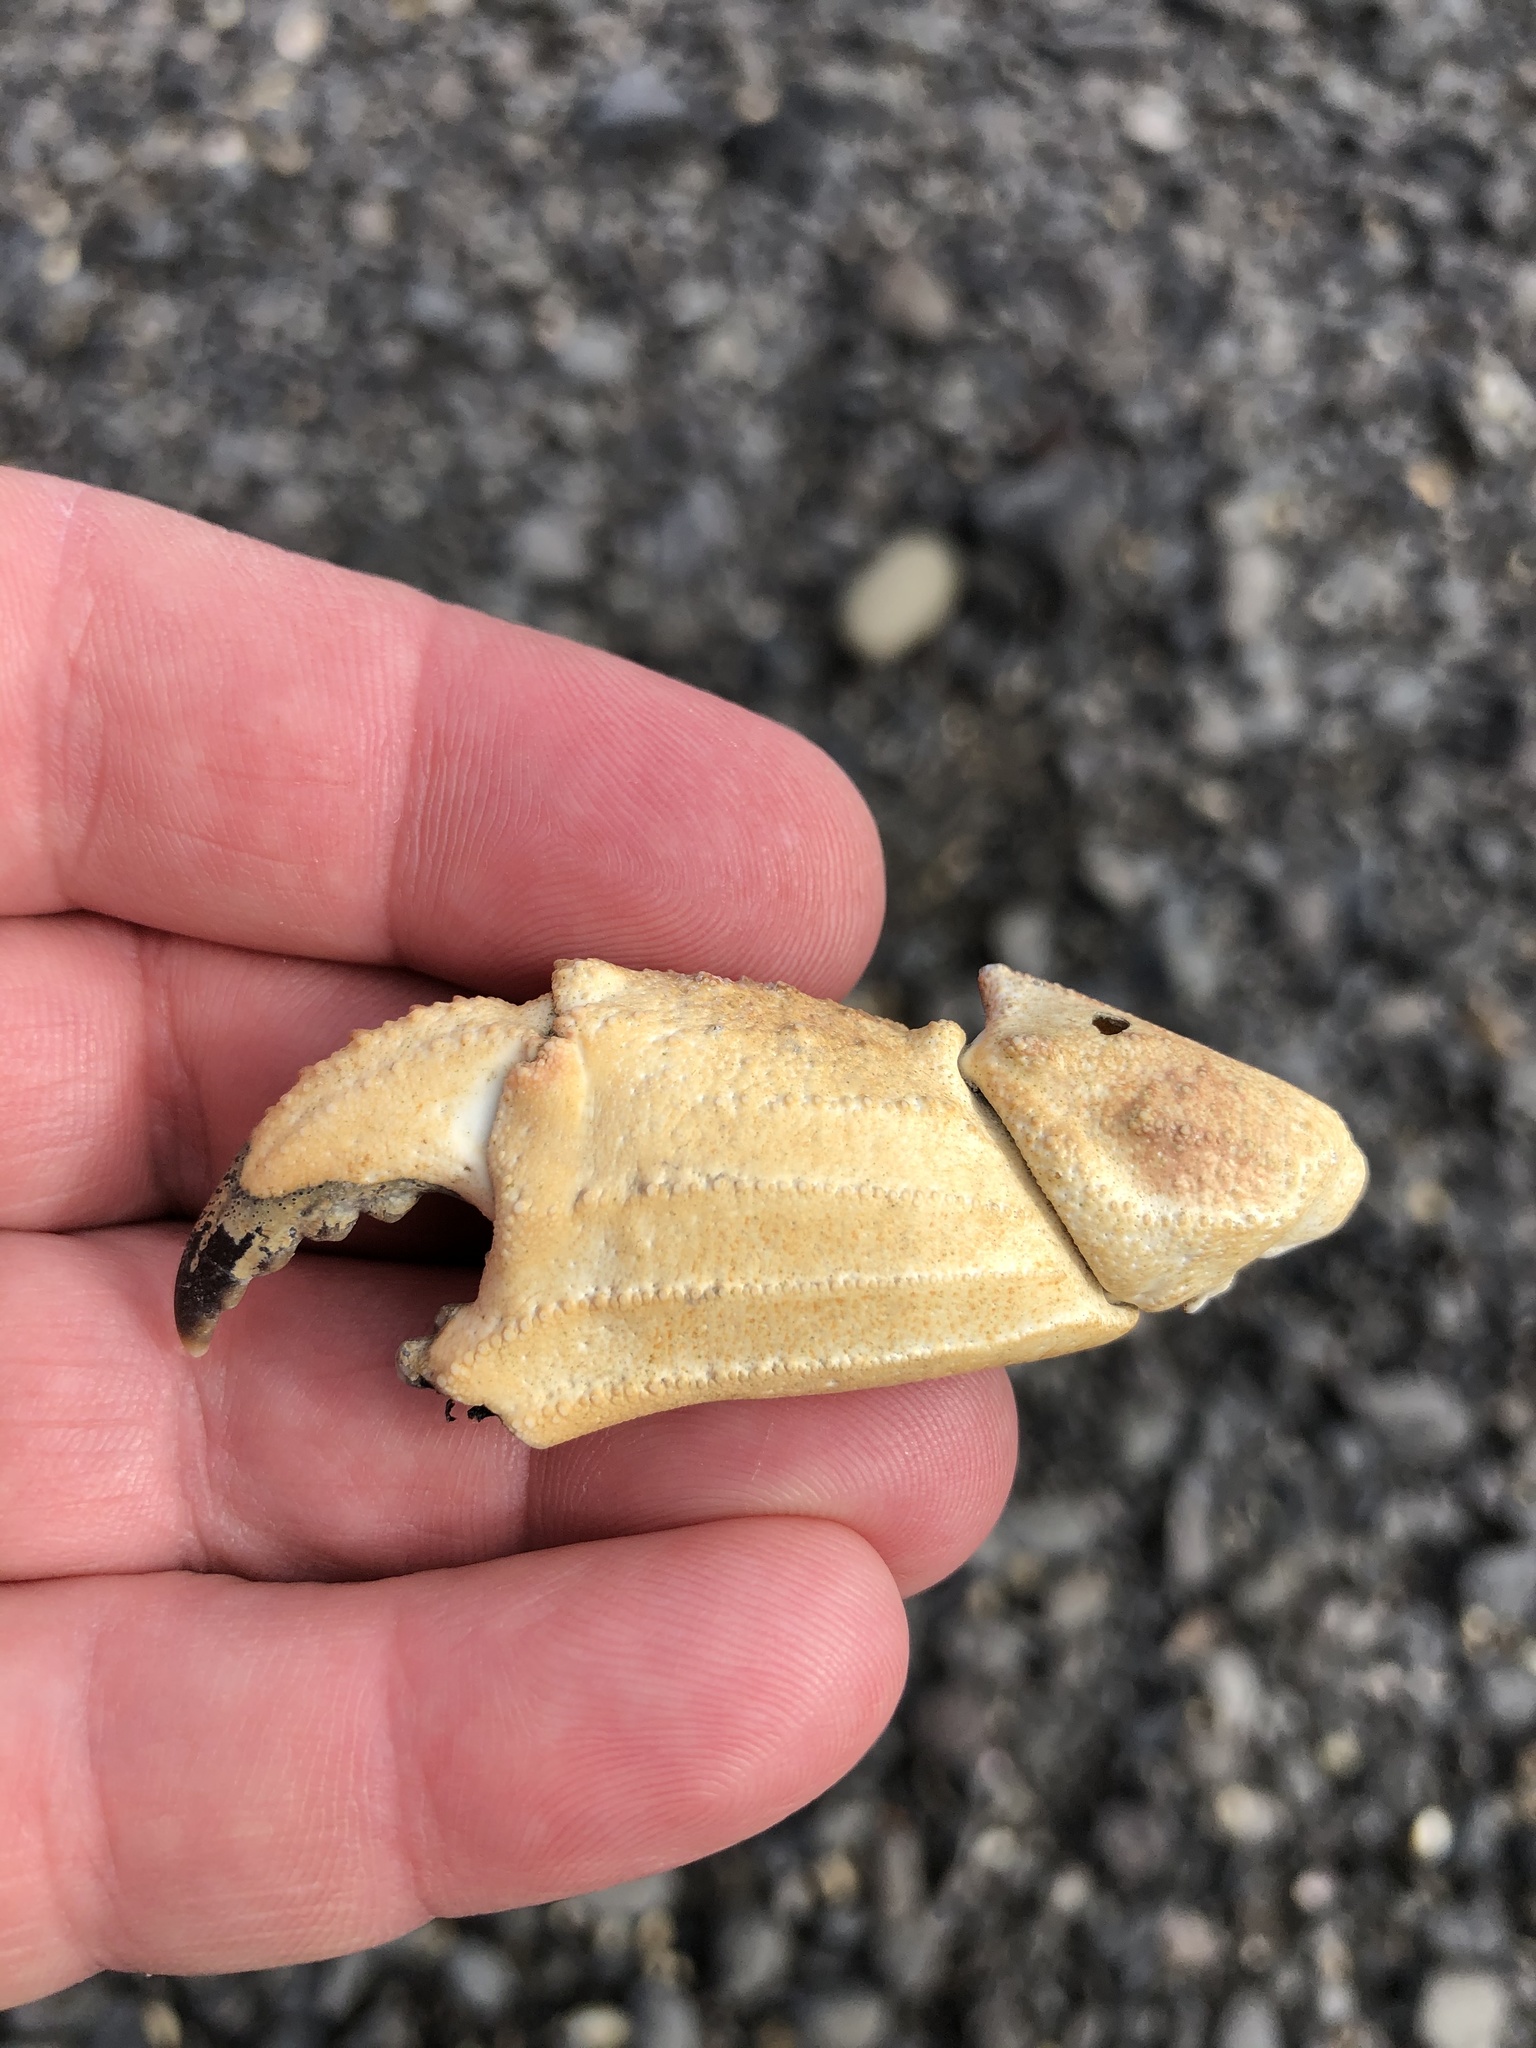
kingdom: Animalia
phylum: Arthropoda
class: Malacostraca
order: Decapoda
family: Cancridae
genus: Metacarcinus
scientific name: Metacarcinus novaezelandiae
